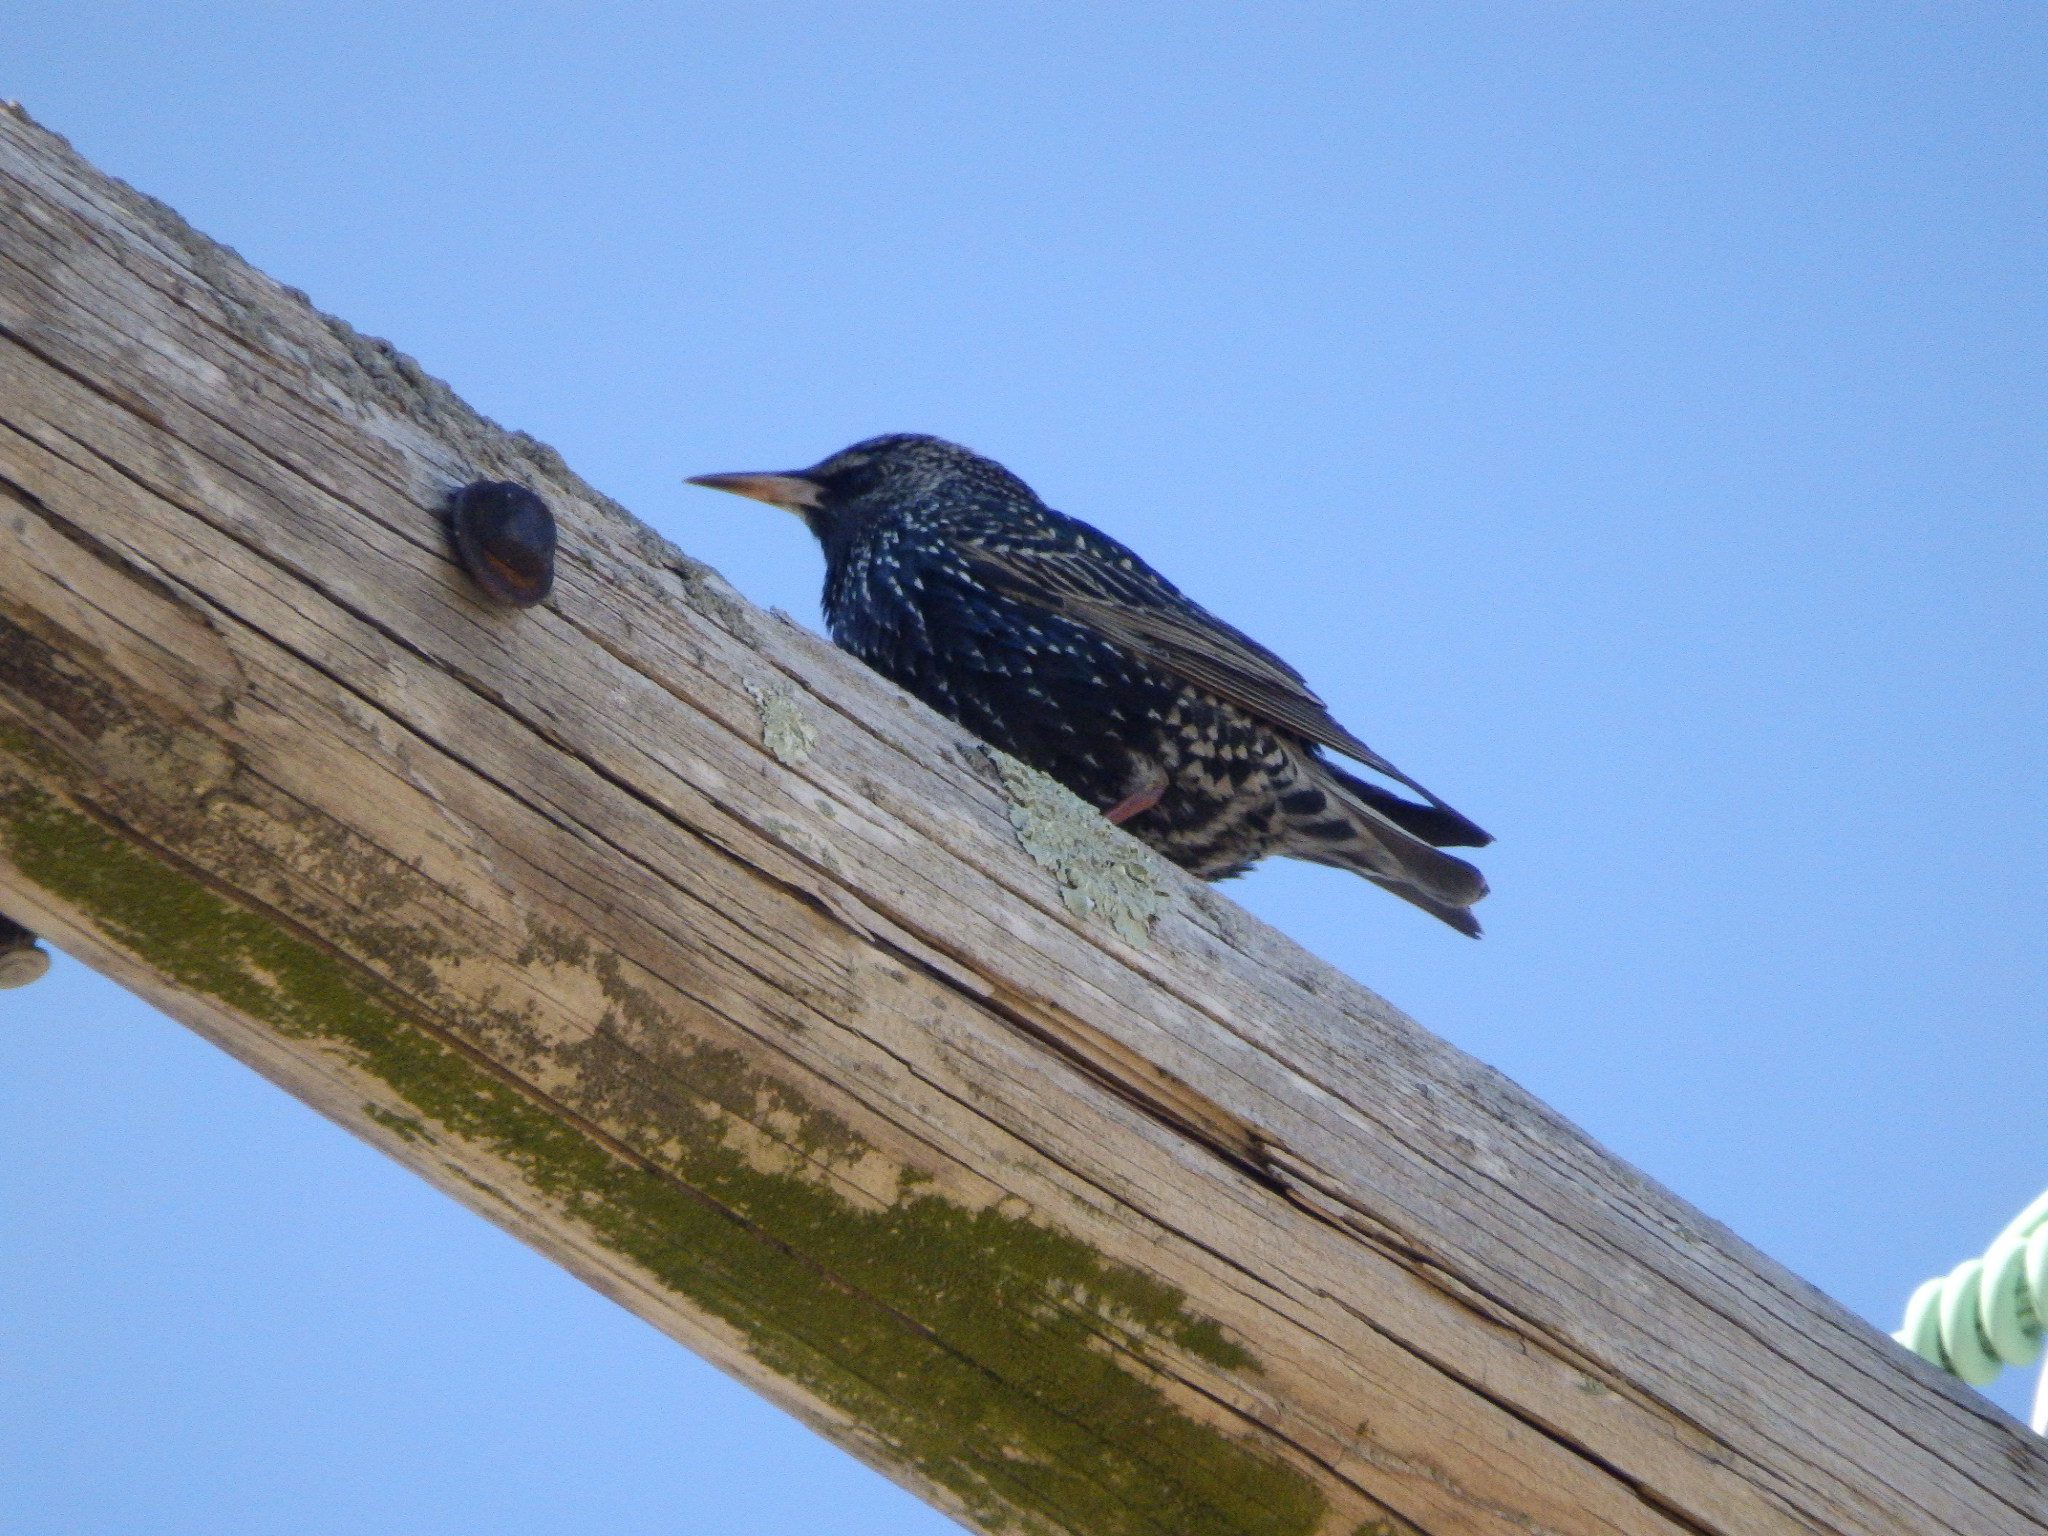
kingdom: Animalia
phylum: Chordata
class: Aves
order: Passeriformes
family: Sturnidae
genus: Sturnus
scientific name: Sturnus vulgaris
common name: Common starling
